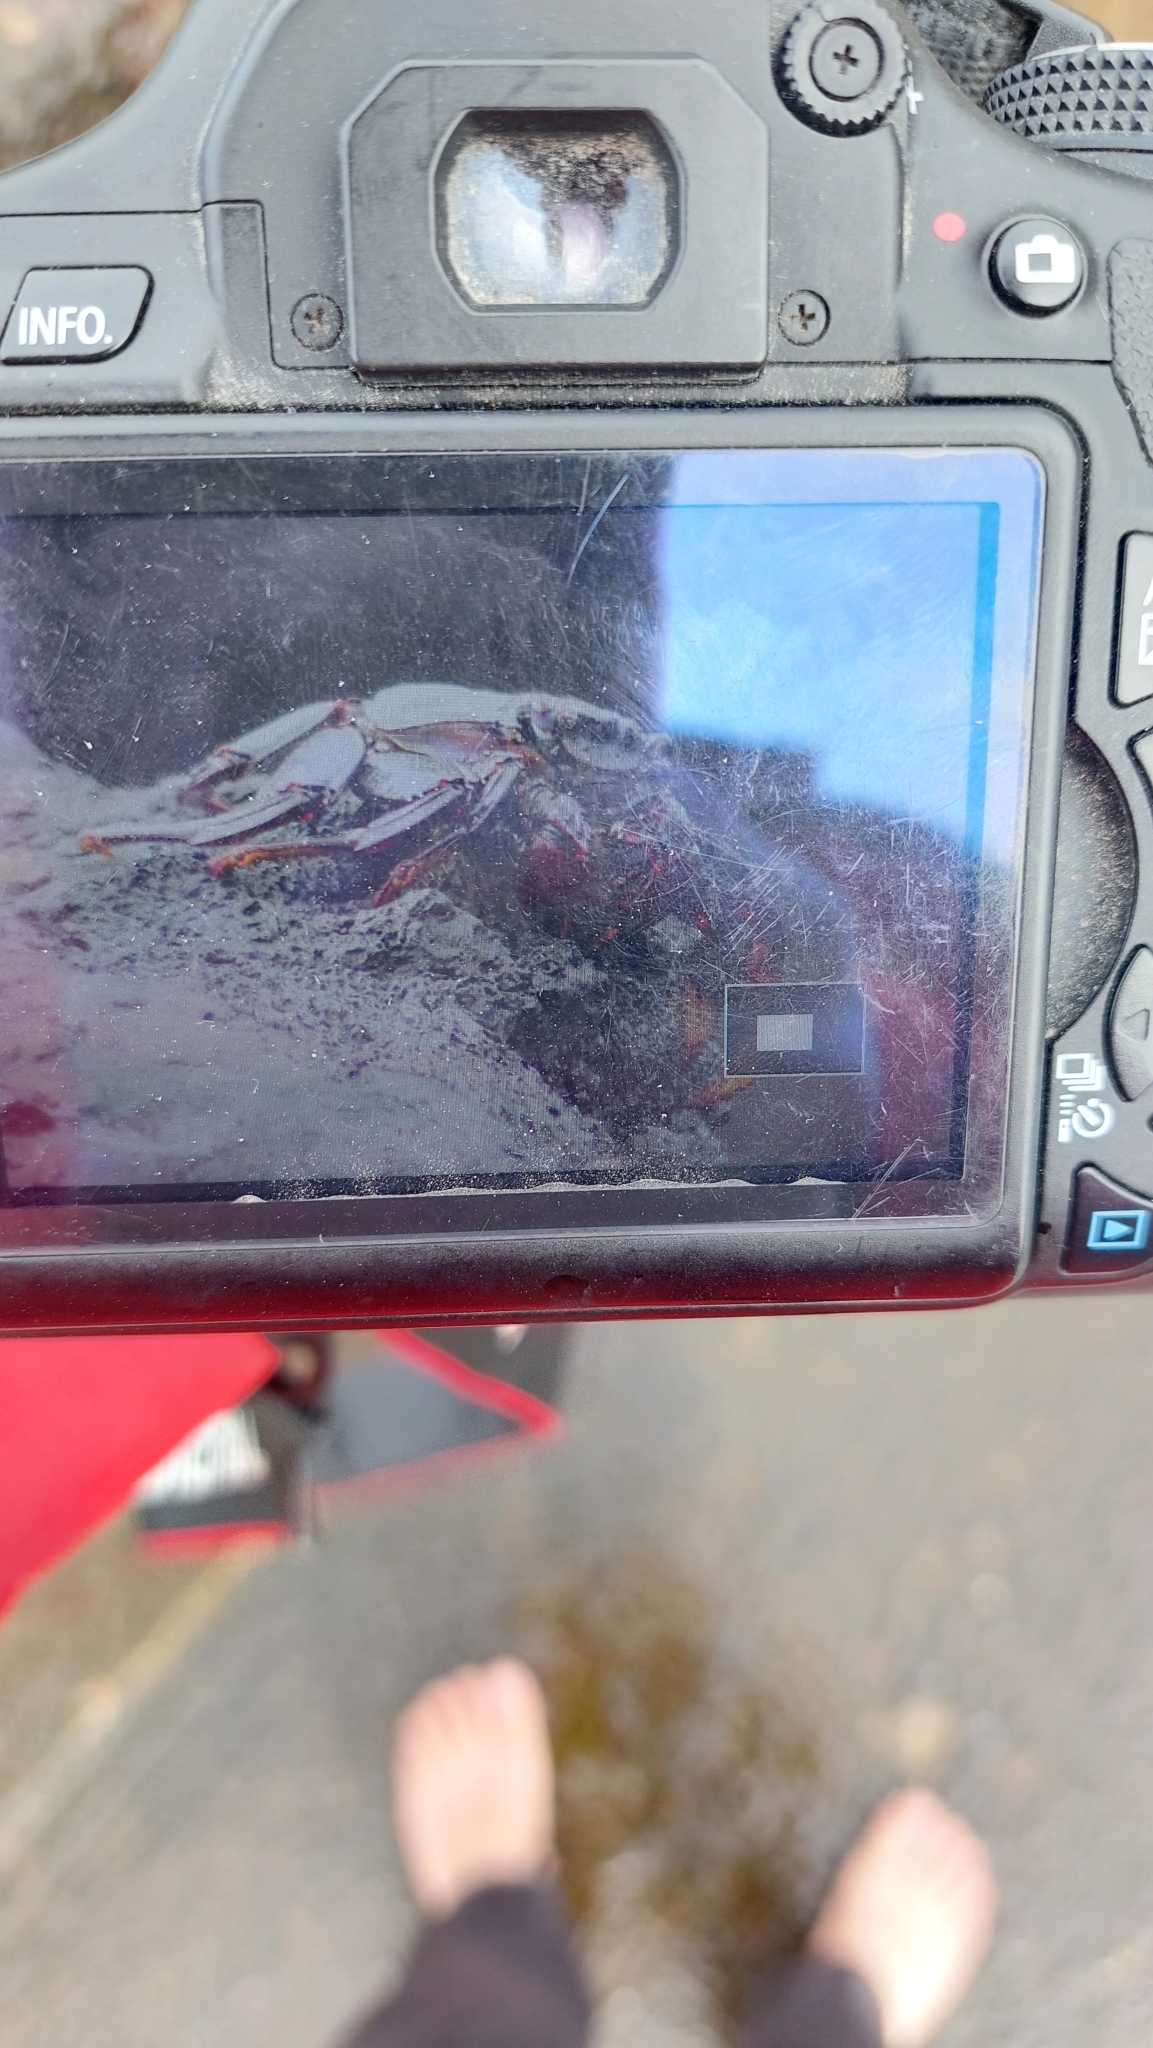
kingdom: Animalia
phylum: Arthropoda
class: Malacostraca
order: Decapoda
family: Grapsidae
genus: Grapsus
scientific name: Grapsus adscensionis
